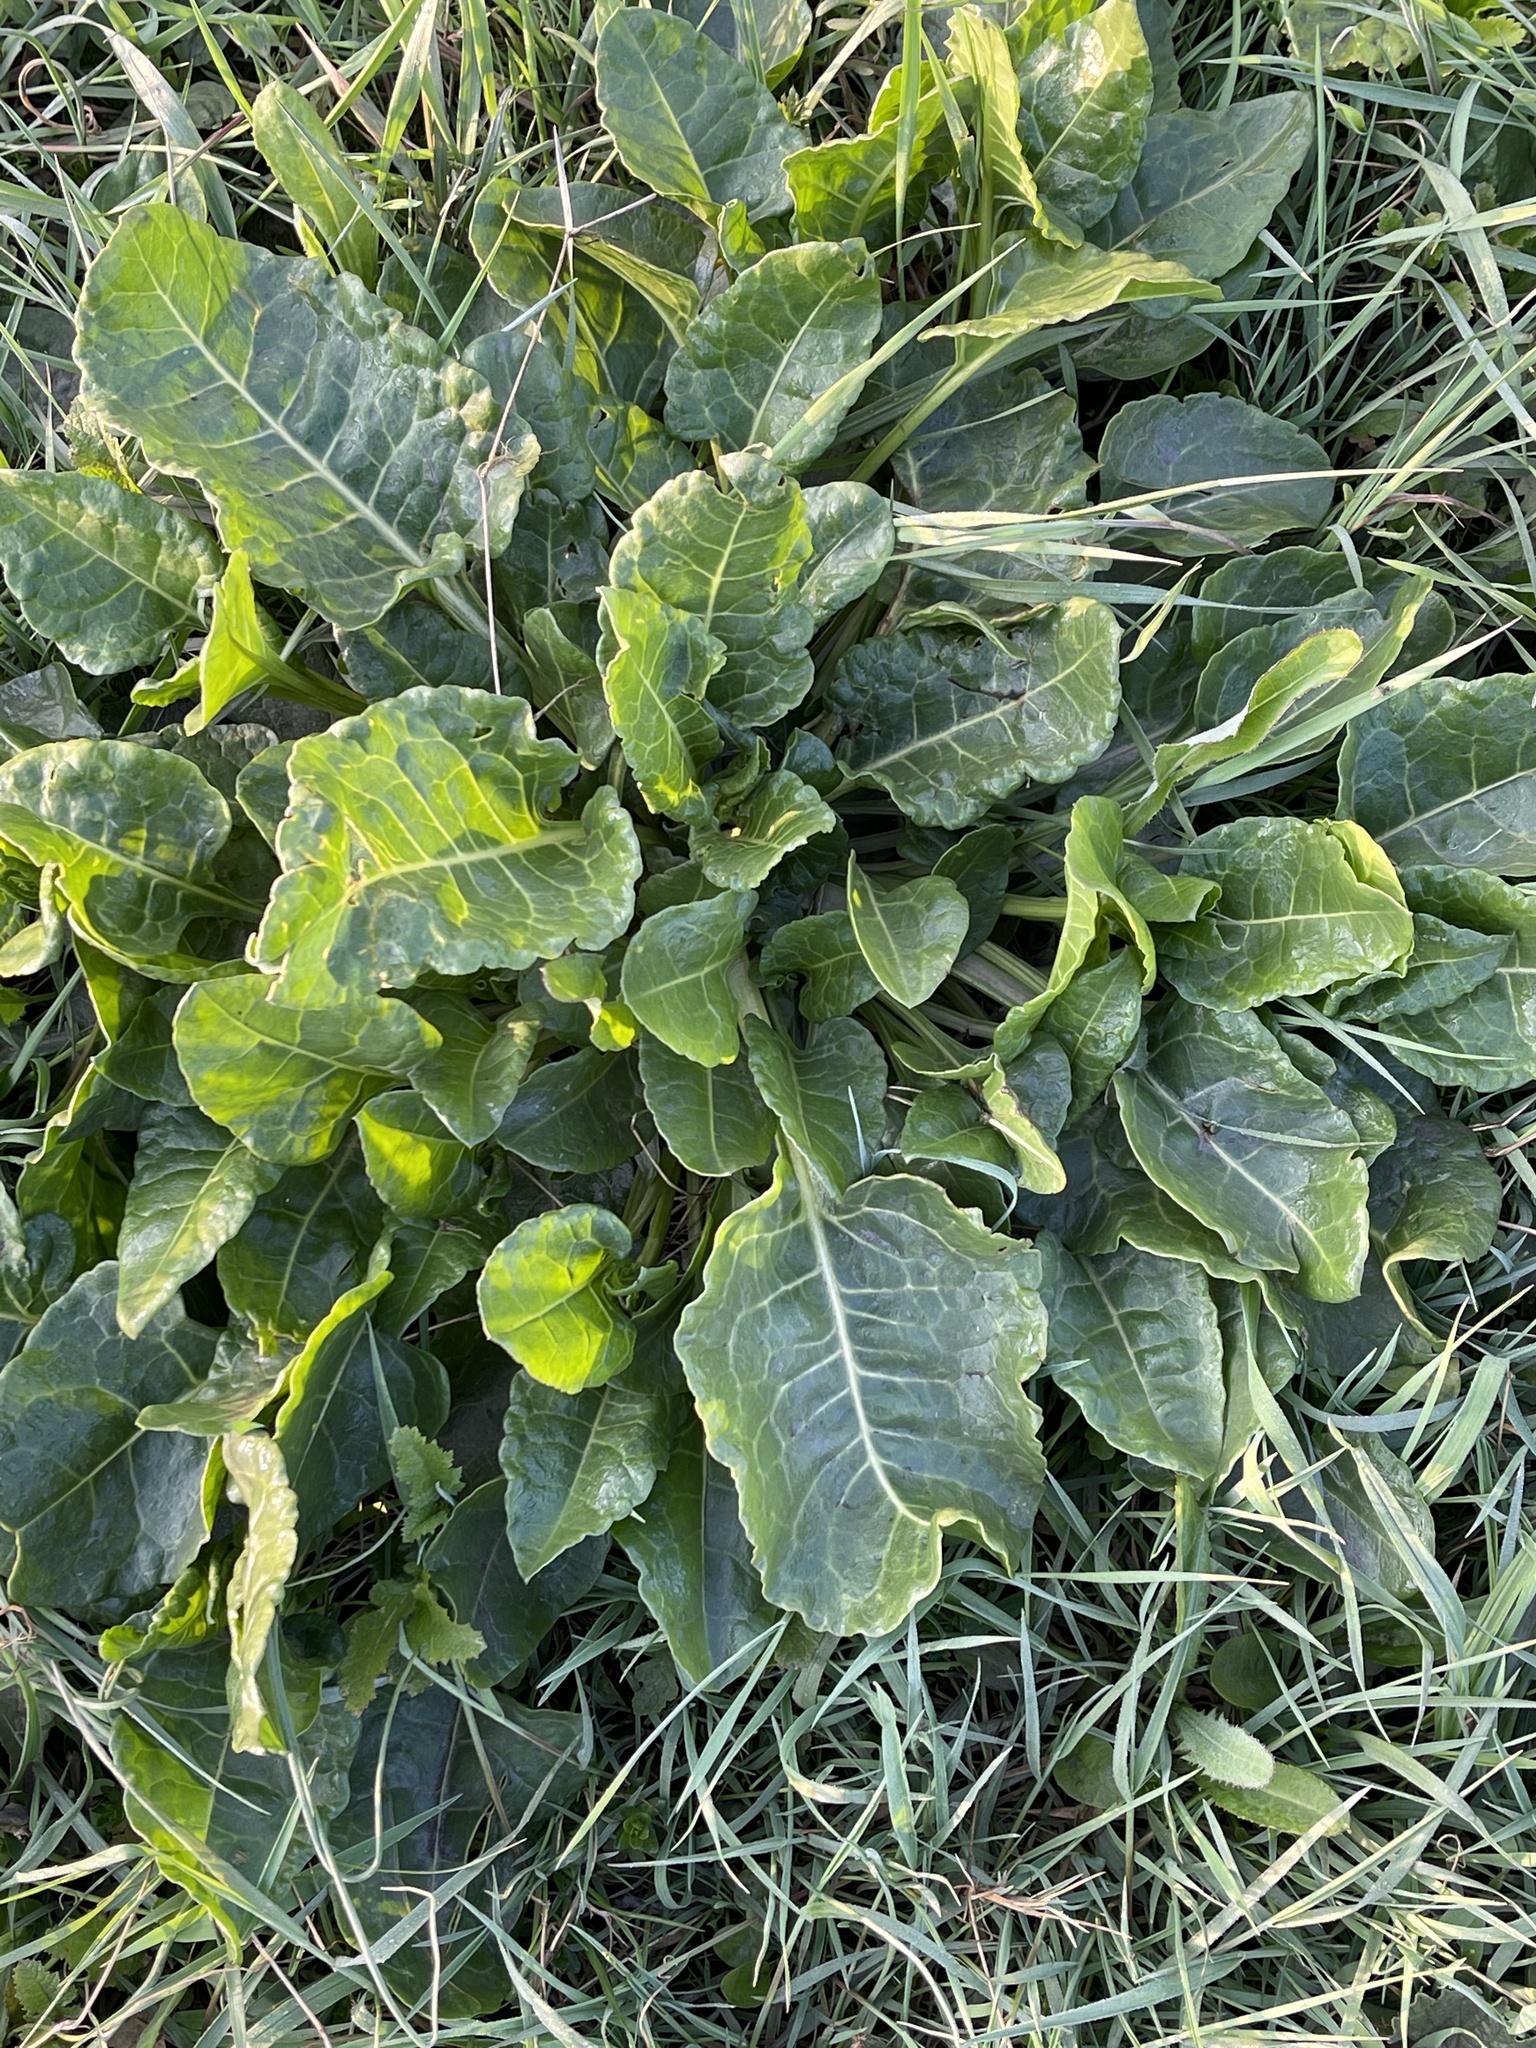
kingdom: Plantae
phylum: Tracheophyta
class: Magnoliopsida
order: Caryophyllales
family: Amaranthaceae
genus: Beta
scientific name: Beta vulgaris
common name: Beet
